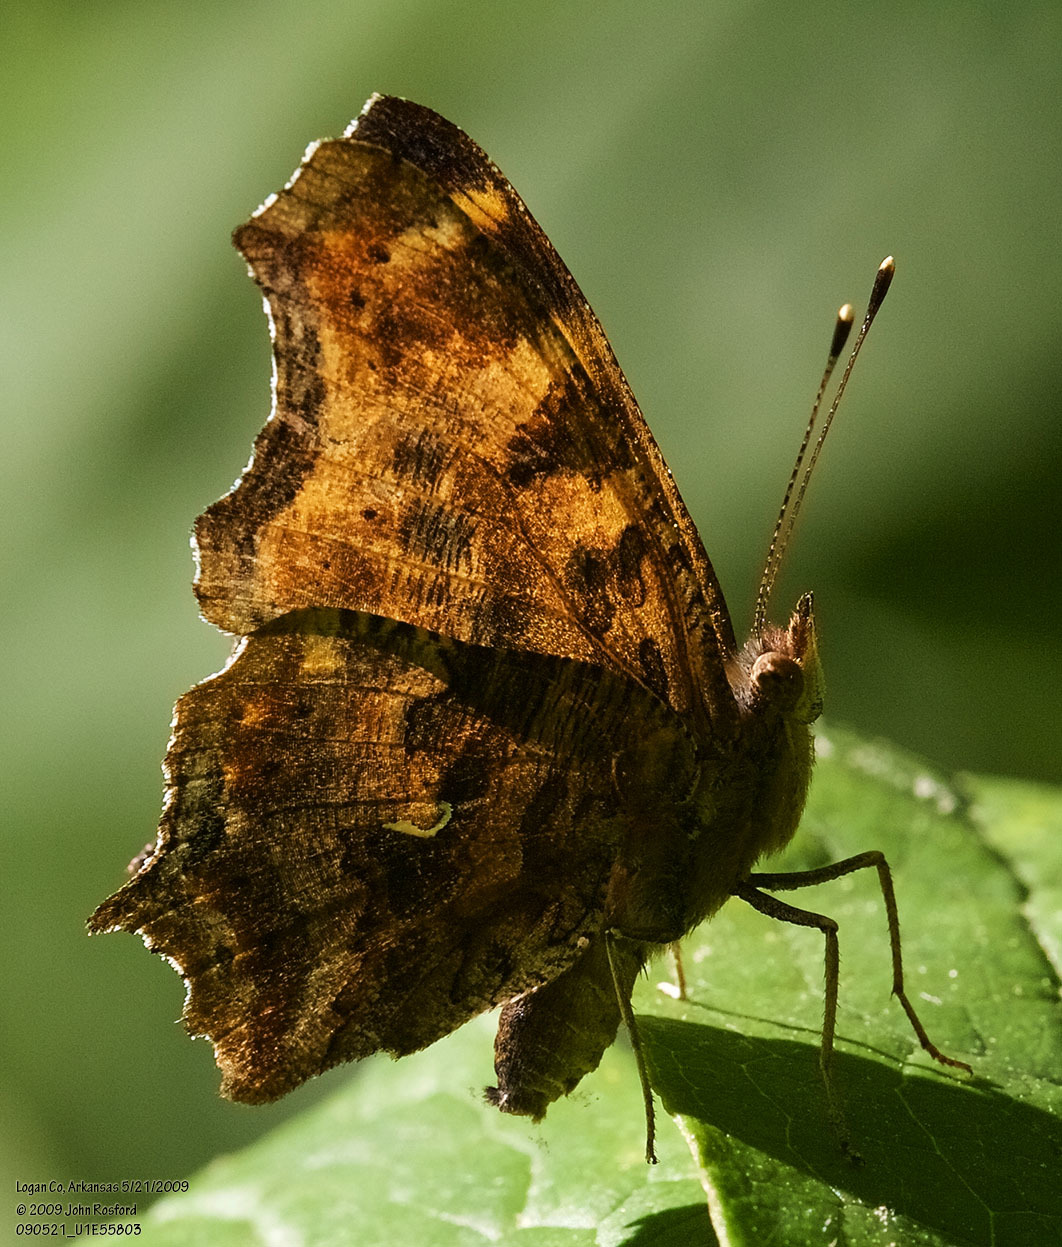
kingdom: Animalia
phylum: Arthropoda
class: Insecta
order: Lepidoptera
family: Nymphalidae
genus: Polygonia
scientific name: Polygonia comma
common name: Eastern comma
